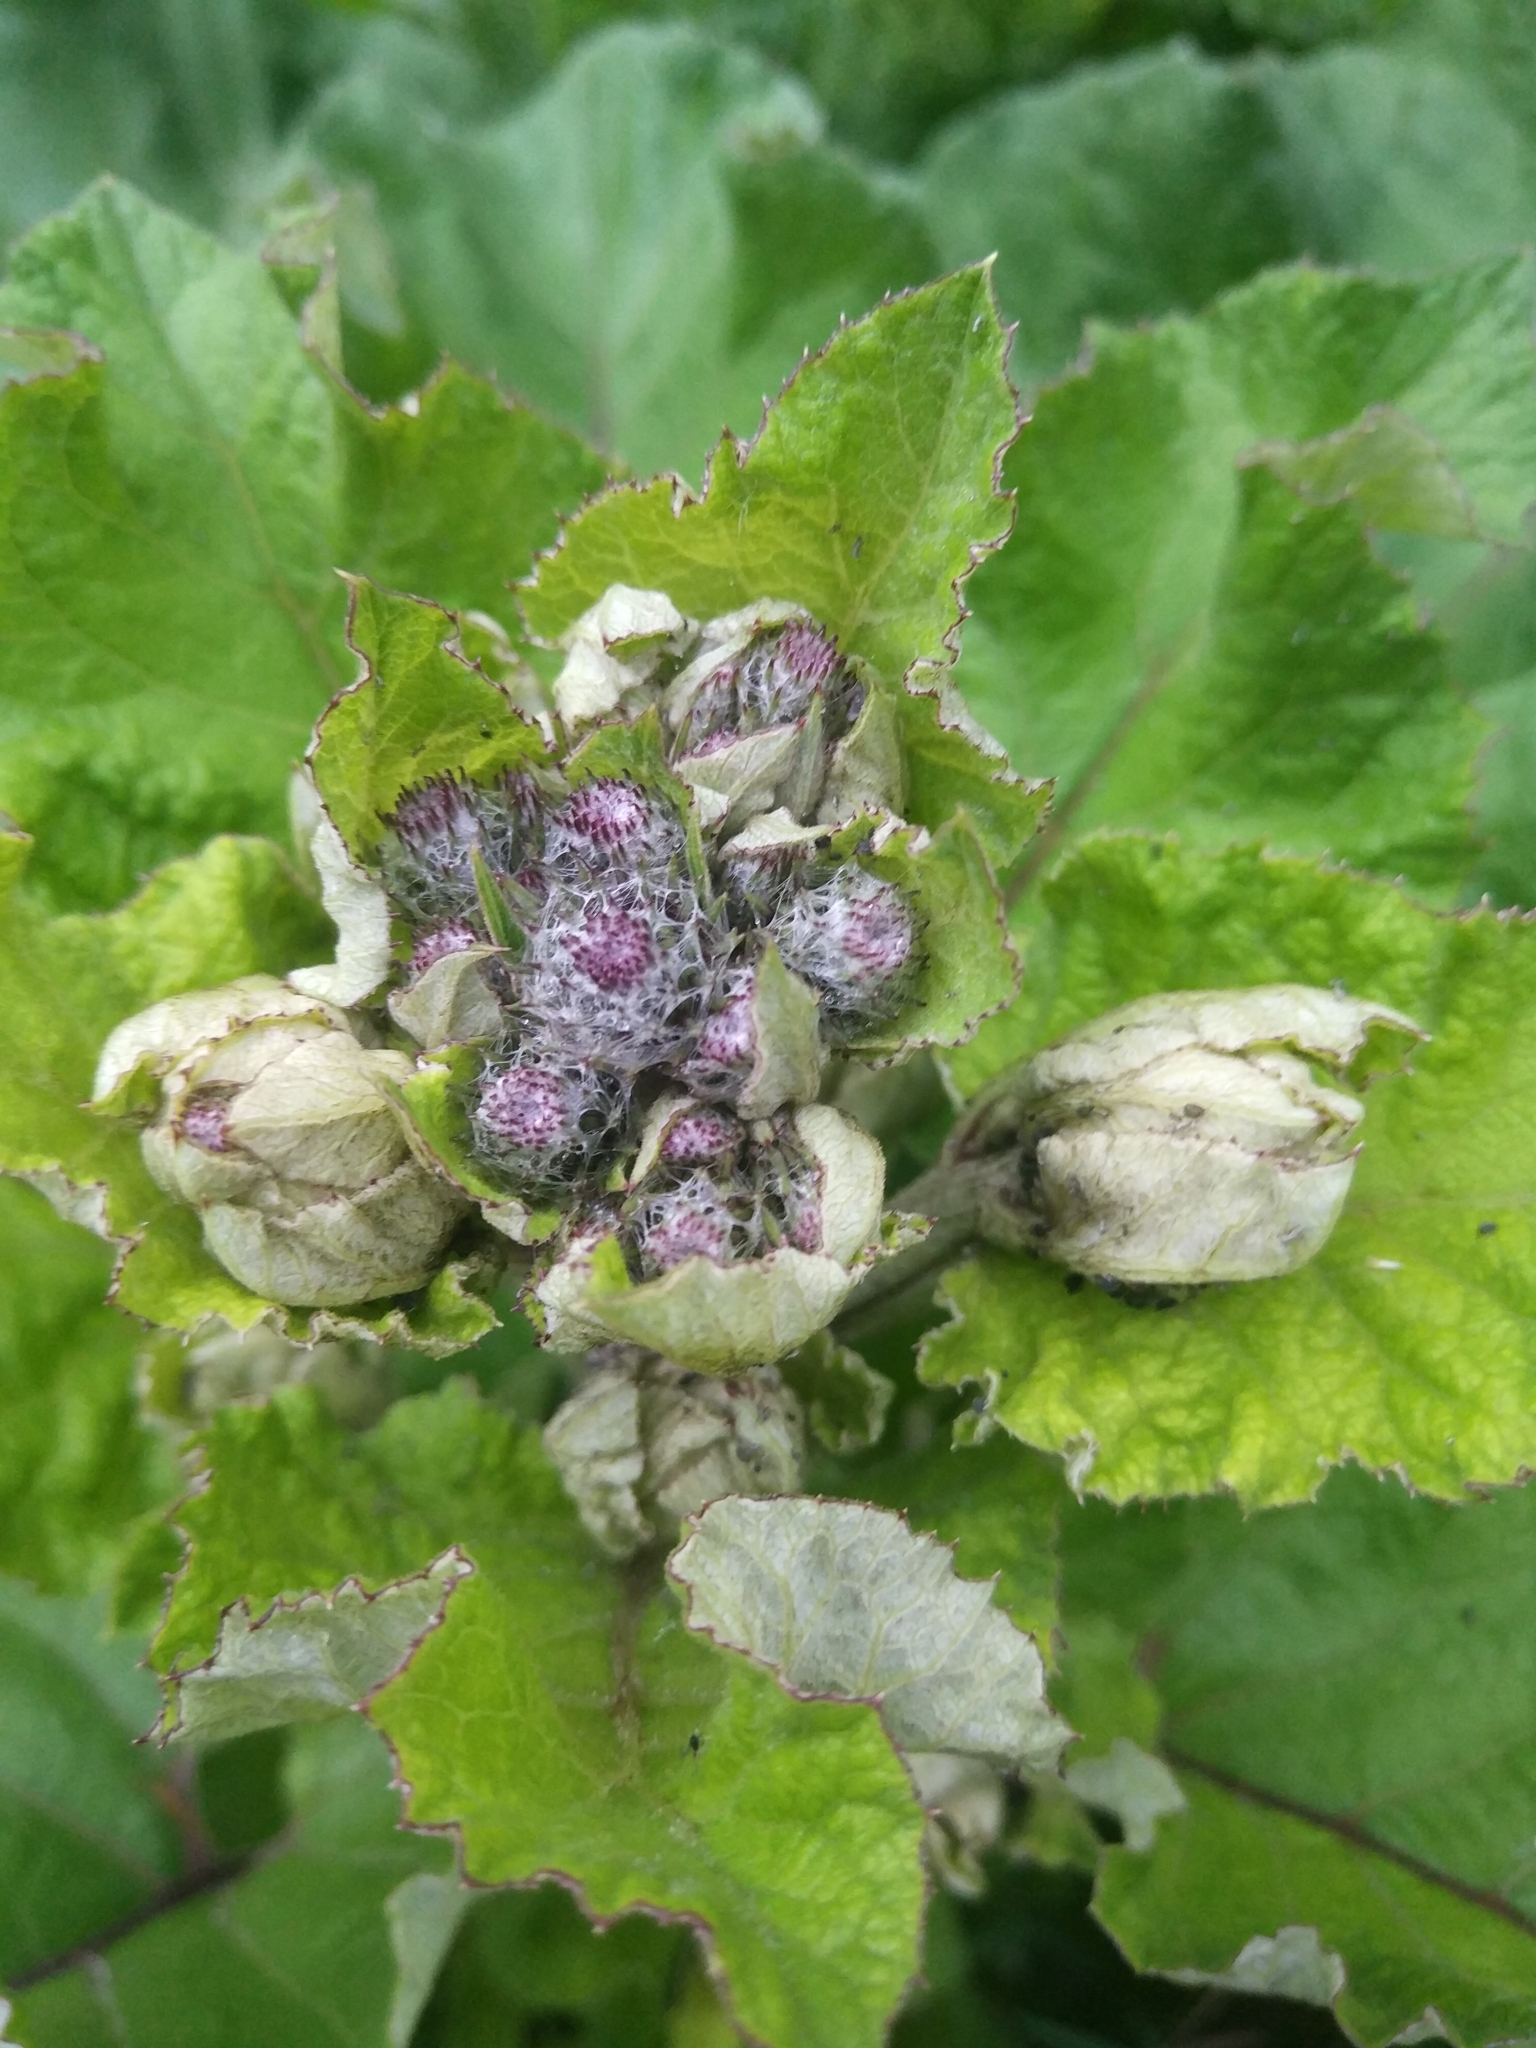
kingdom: Plantae
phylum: Tracheophyta
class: Magnoliopsida
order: Asterales
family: Asteraceae
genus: Arctium
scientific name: Arctium tomentosum
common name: Woolly burdock
